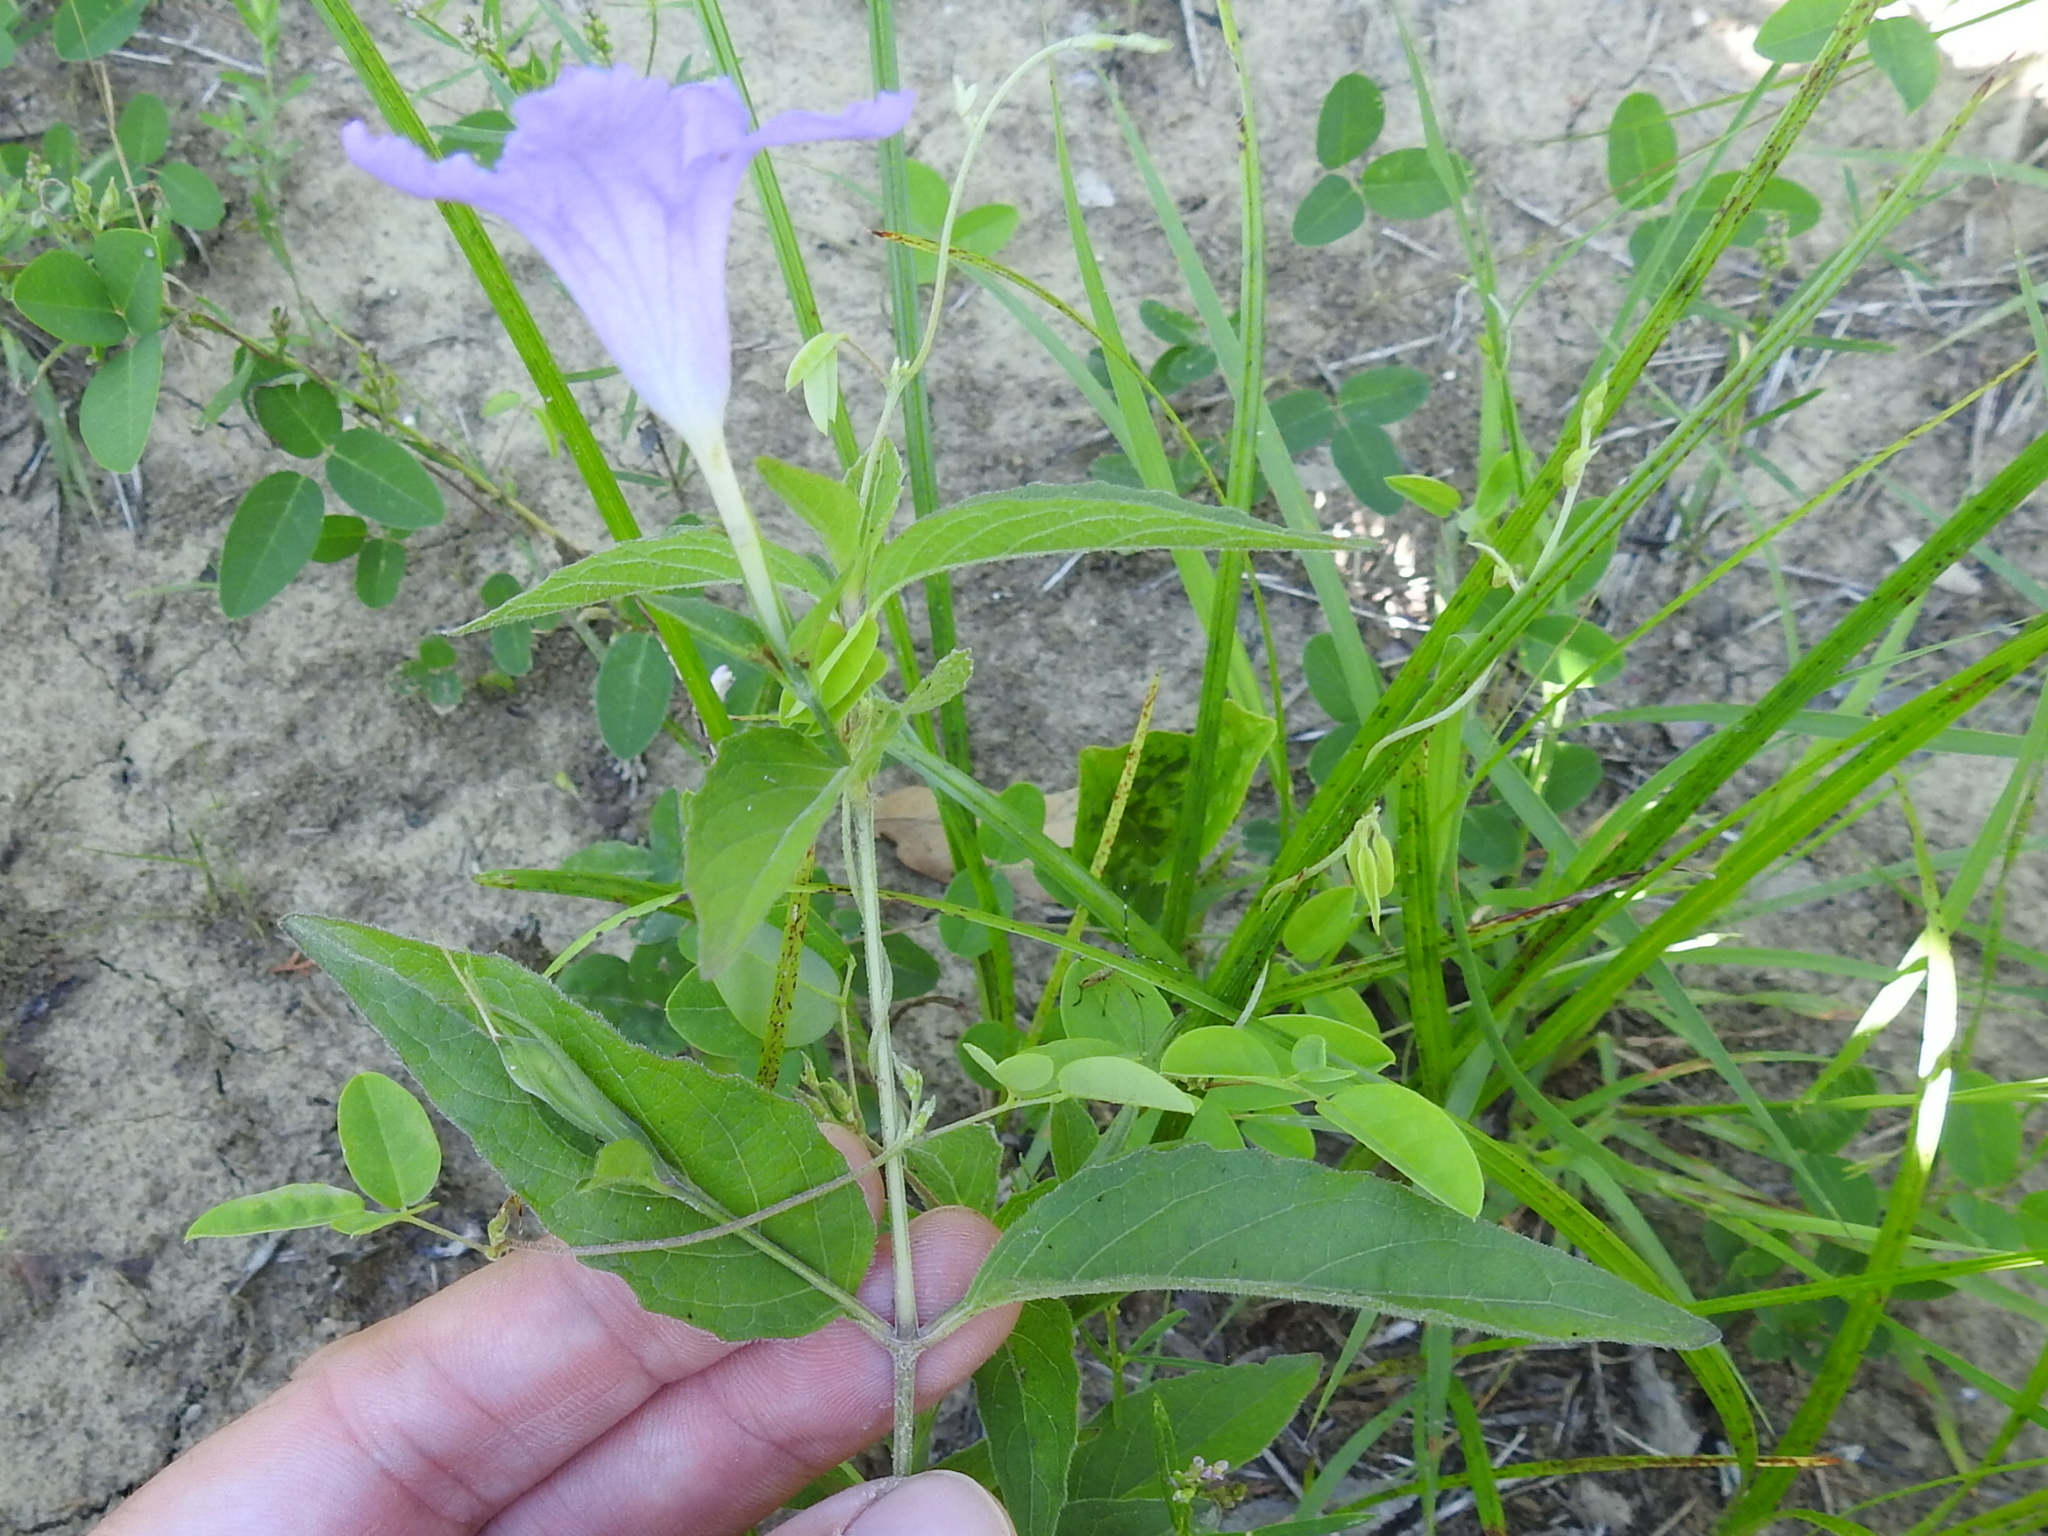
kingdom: Plantae
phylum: Tracheophyta
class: Magnoliopsida
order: Lamiales
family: Acanthaceae
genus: Ruellia
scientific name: Ruellia pedunculata
